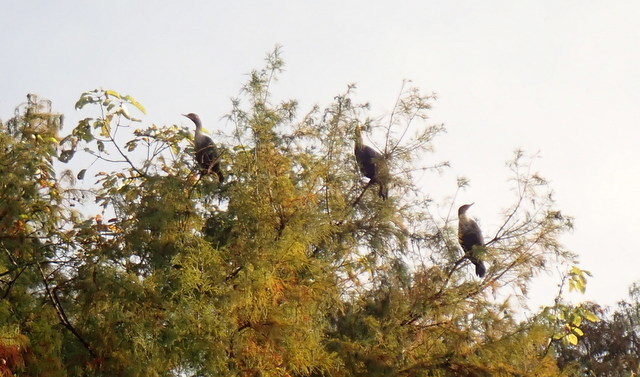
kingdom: Animalia
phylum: Chordata
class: Aves
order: Suliformes
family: Phalacrocoracidae
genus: Phalacrocorax
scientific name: Phalacrocorax auritus
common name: Double-crested cormorant
